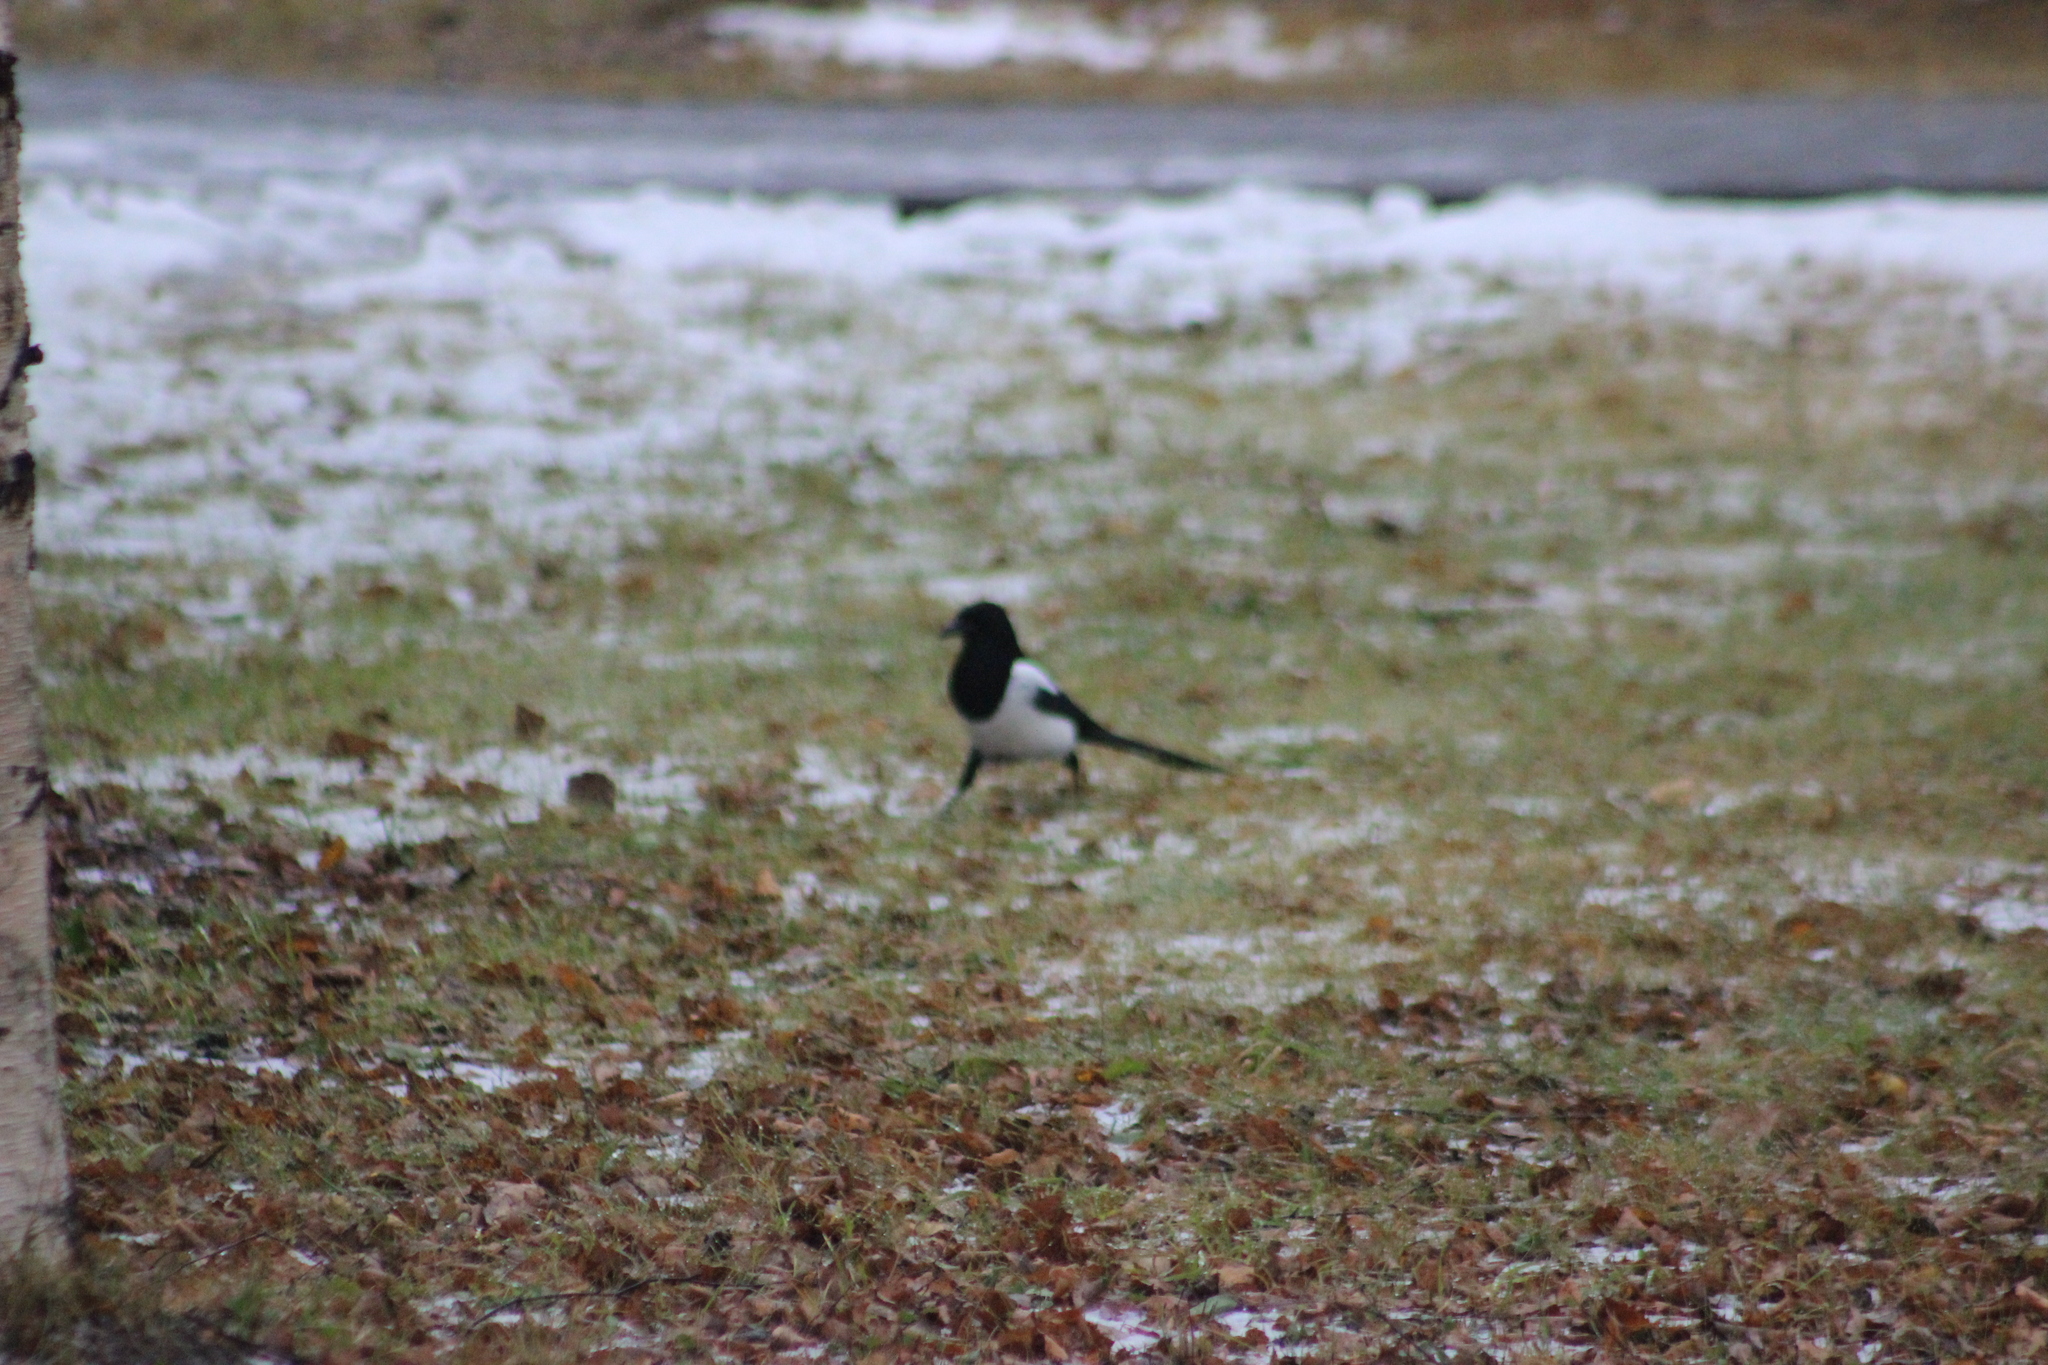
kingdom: Animalia
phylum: Chordata
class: Aves
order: Passeriformes
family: Corvidae
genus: Pica
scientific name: Pica pica
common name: Eurasian magpie
